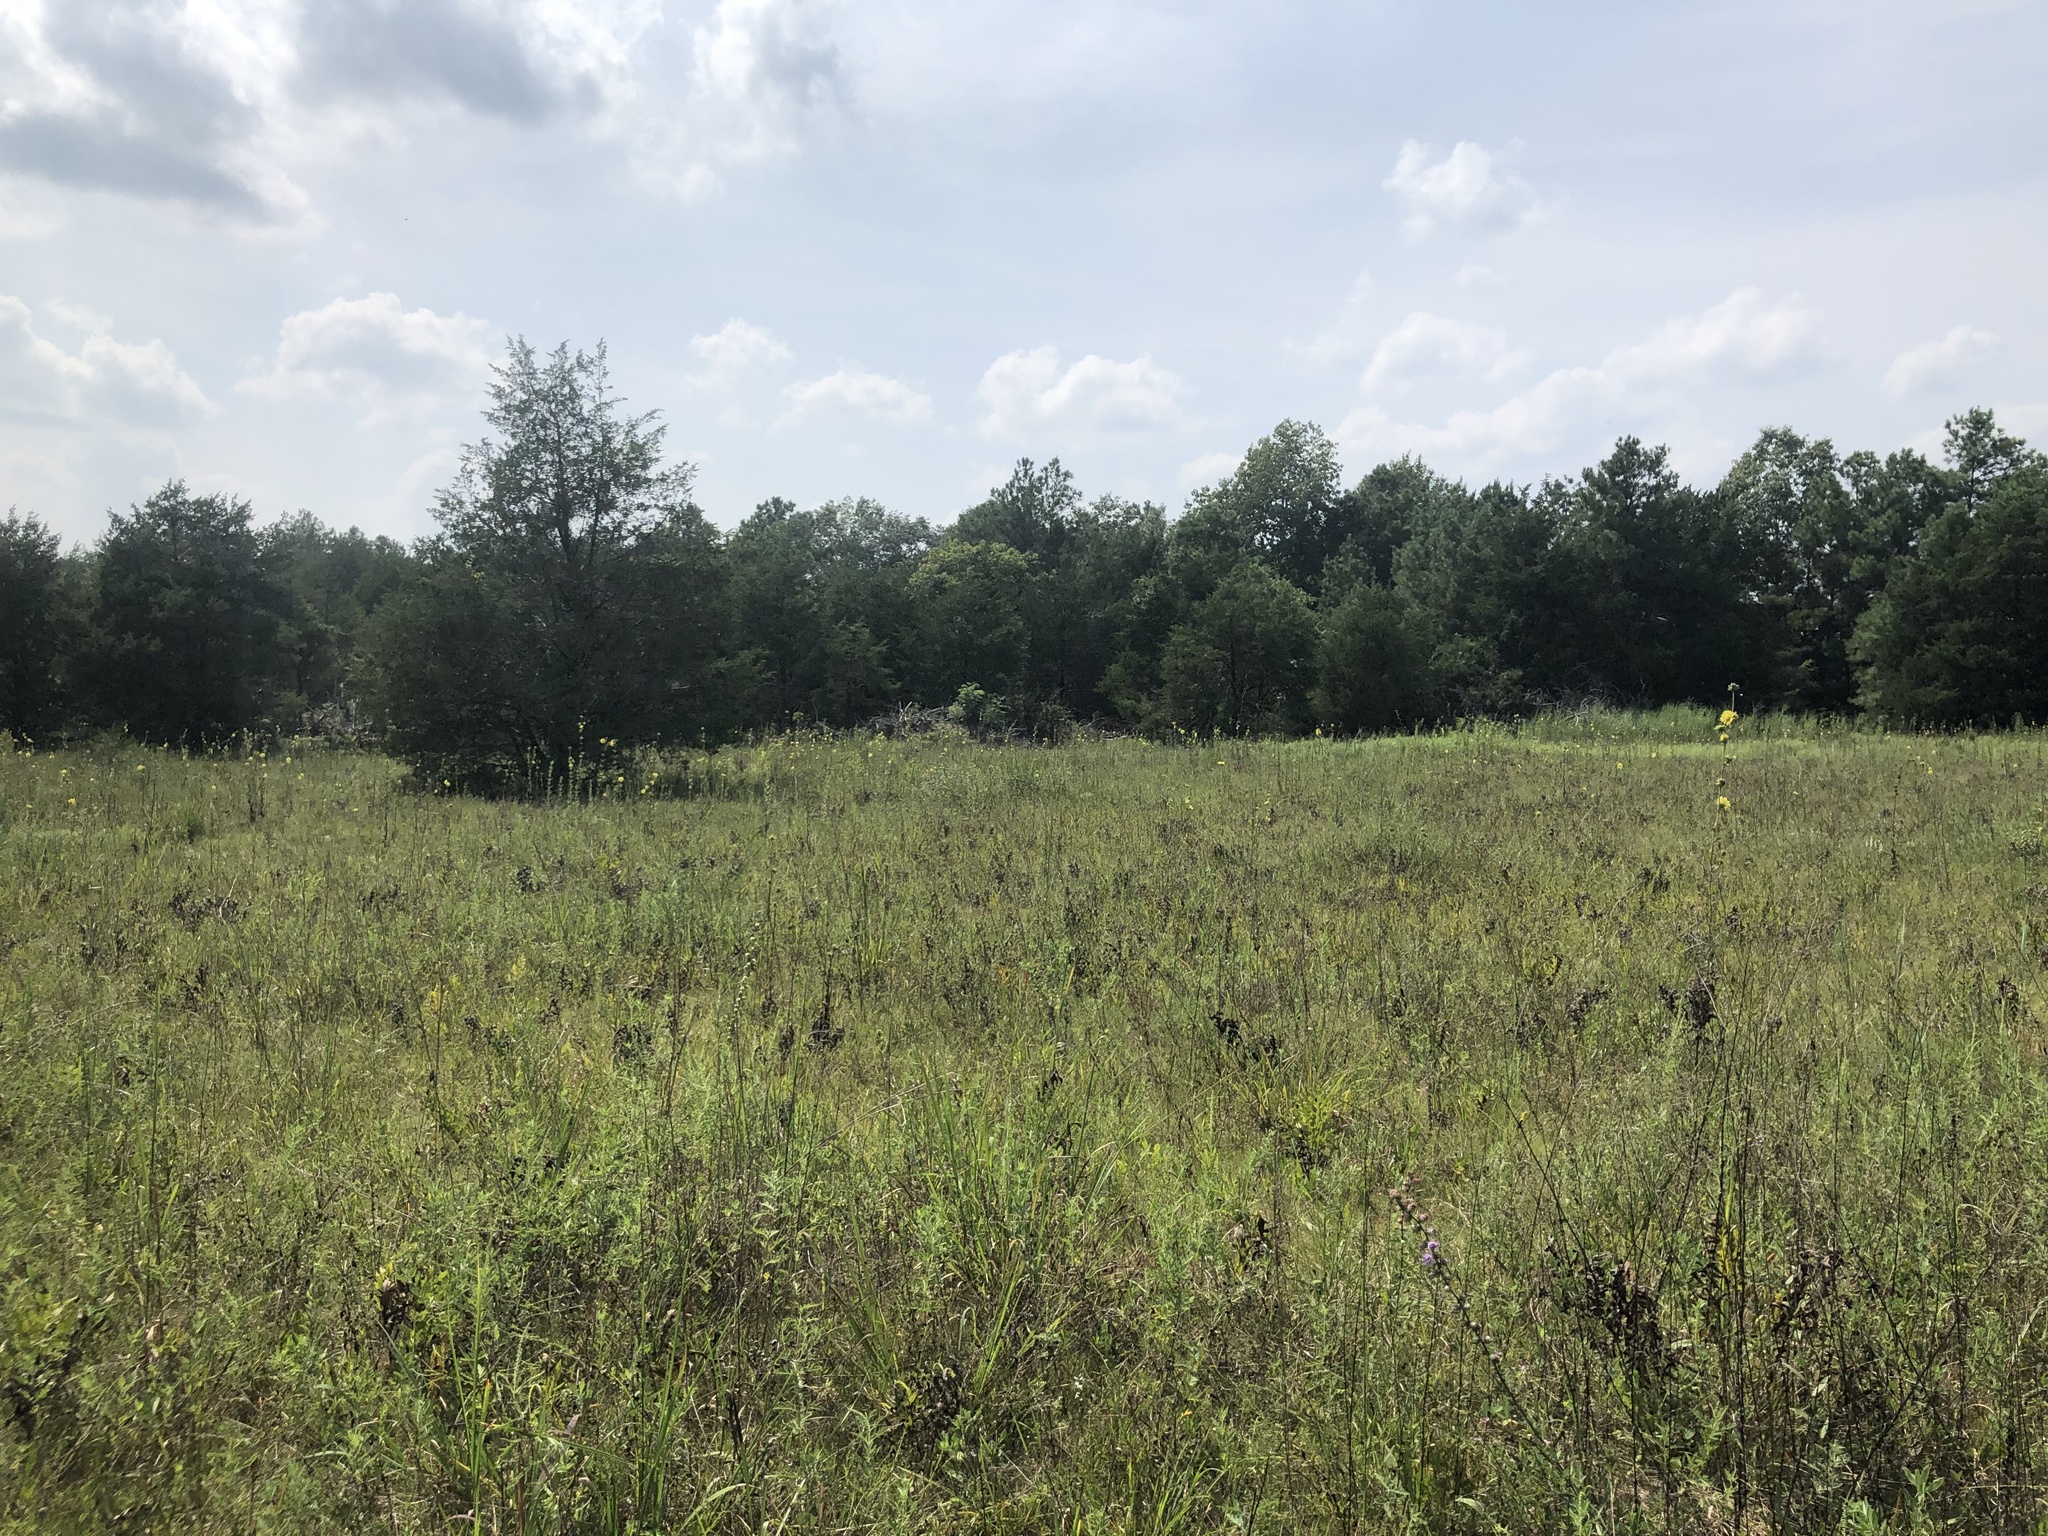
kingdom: Plantae
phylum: Tracheophyta
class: Magnoliopsida
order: Asterales
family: Asteraceae
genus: Liatris
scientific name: Liatris aspera
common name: Lacerate blazing-star
